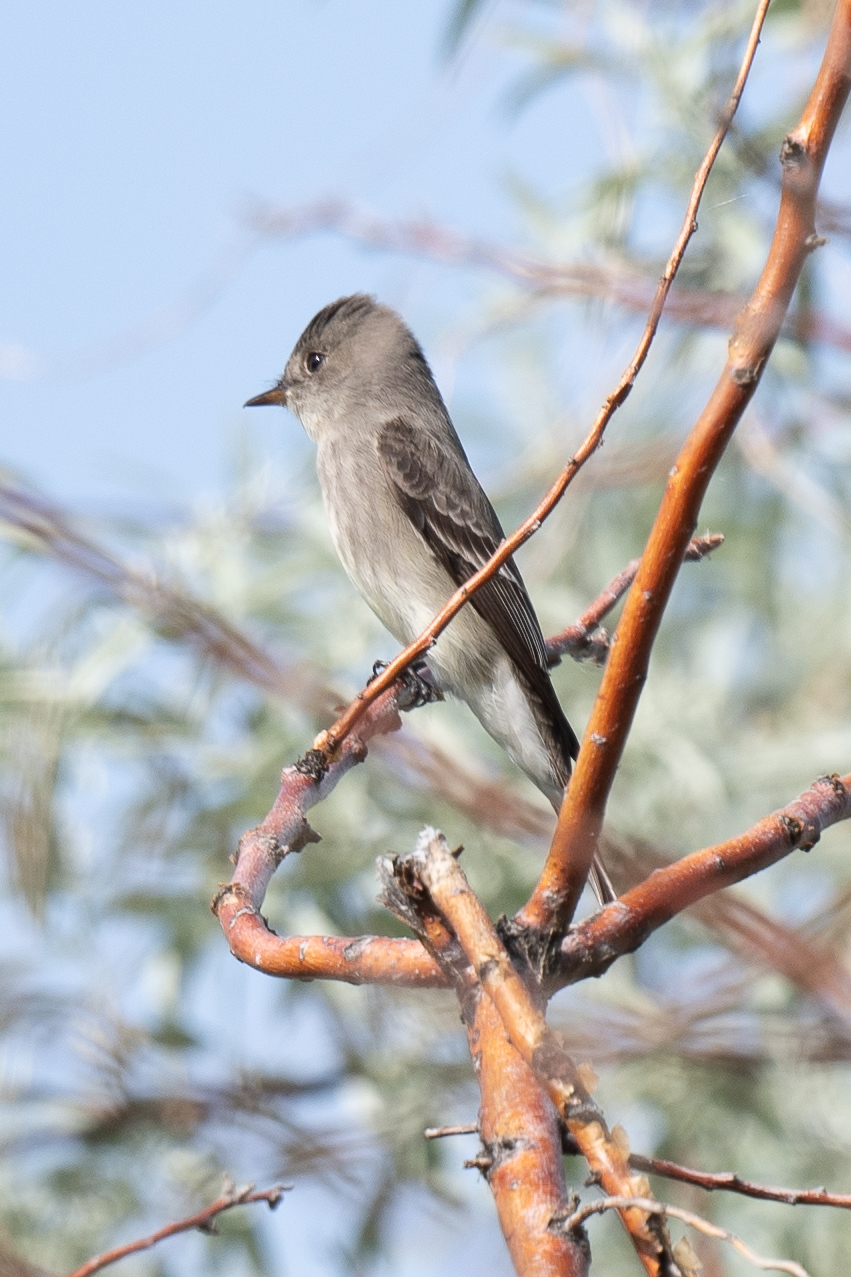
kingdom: Animalia
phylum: Chordata
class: Aves
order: Passeriformes
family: Tyrannidae
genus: Contopus
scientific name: Contopus sordidulus
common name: Western wood-pewee
